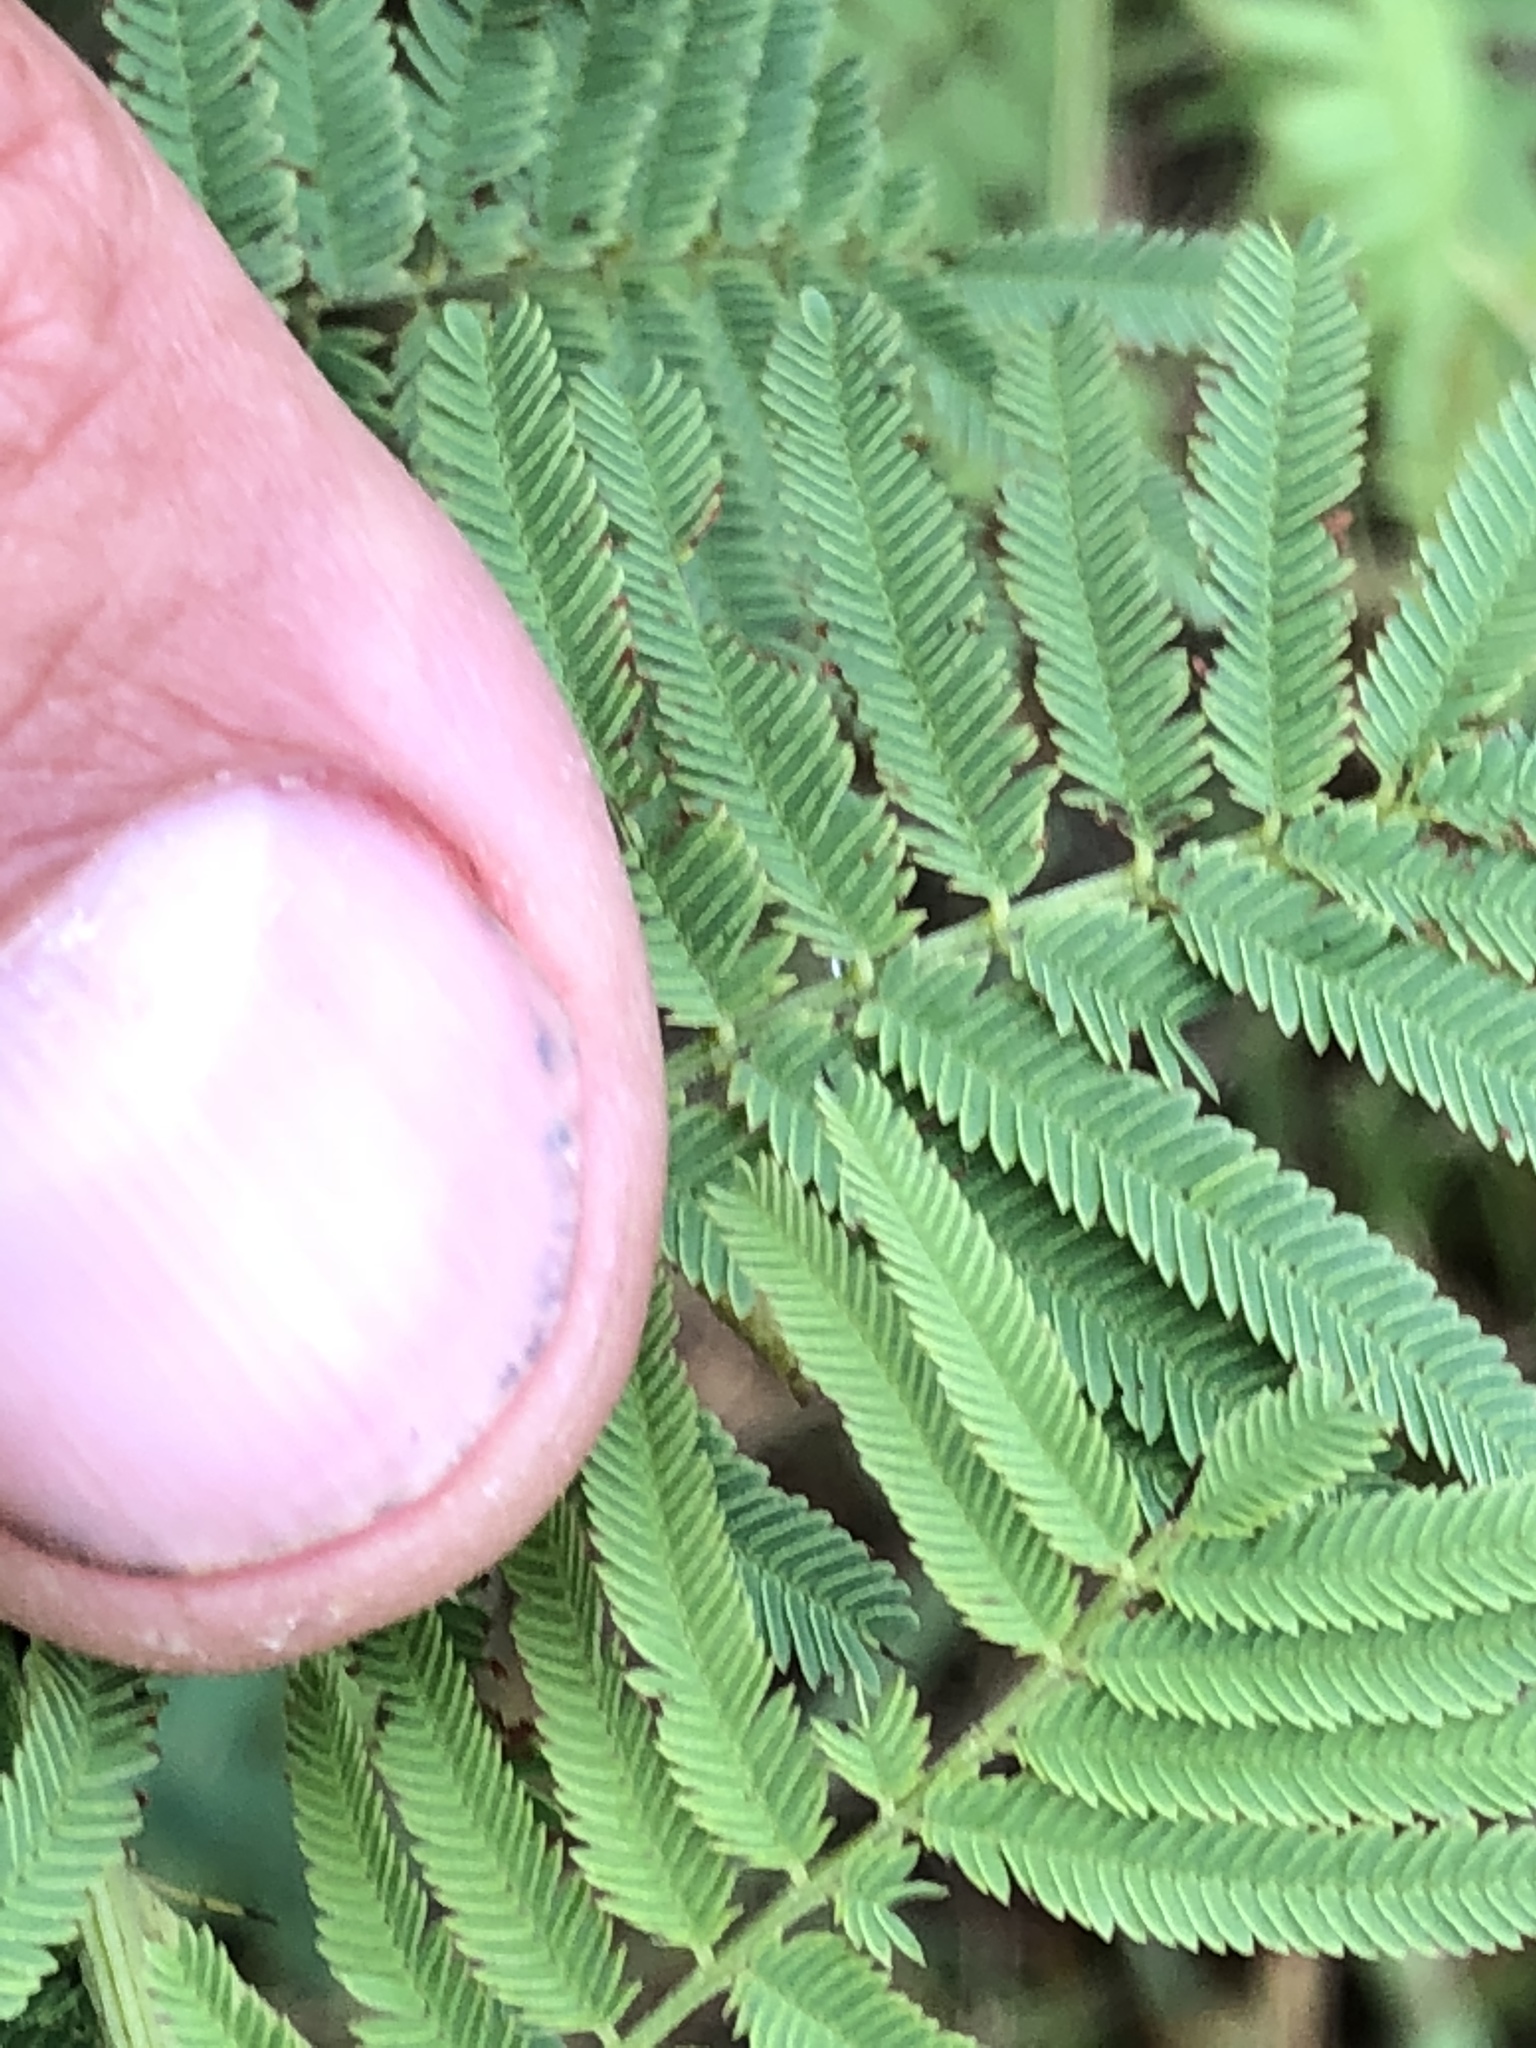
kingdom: Plantae
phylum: Tracheophyta
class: Magnoliopsida
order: Fabales
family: Fabaceae
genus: Desmanthus
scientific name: Desmanthus illinoensis
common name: Illinois bundle-flower
